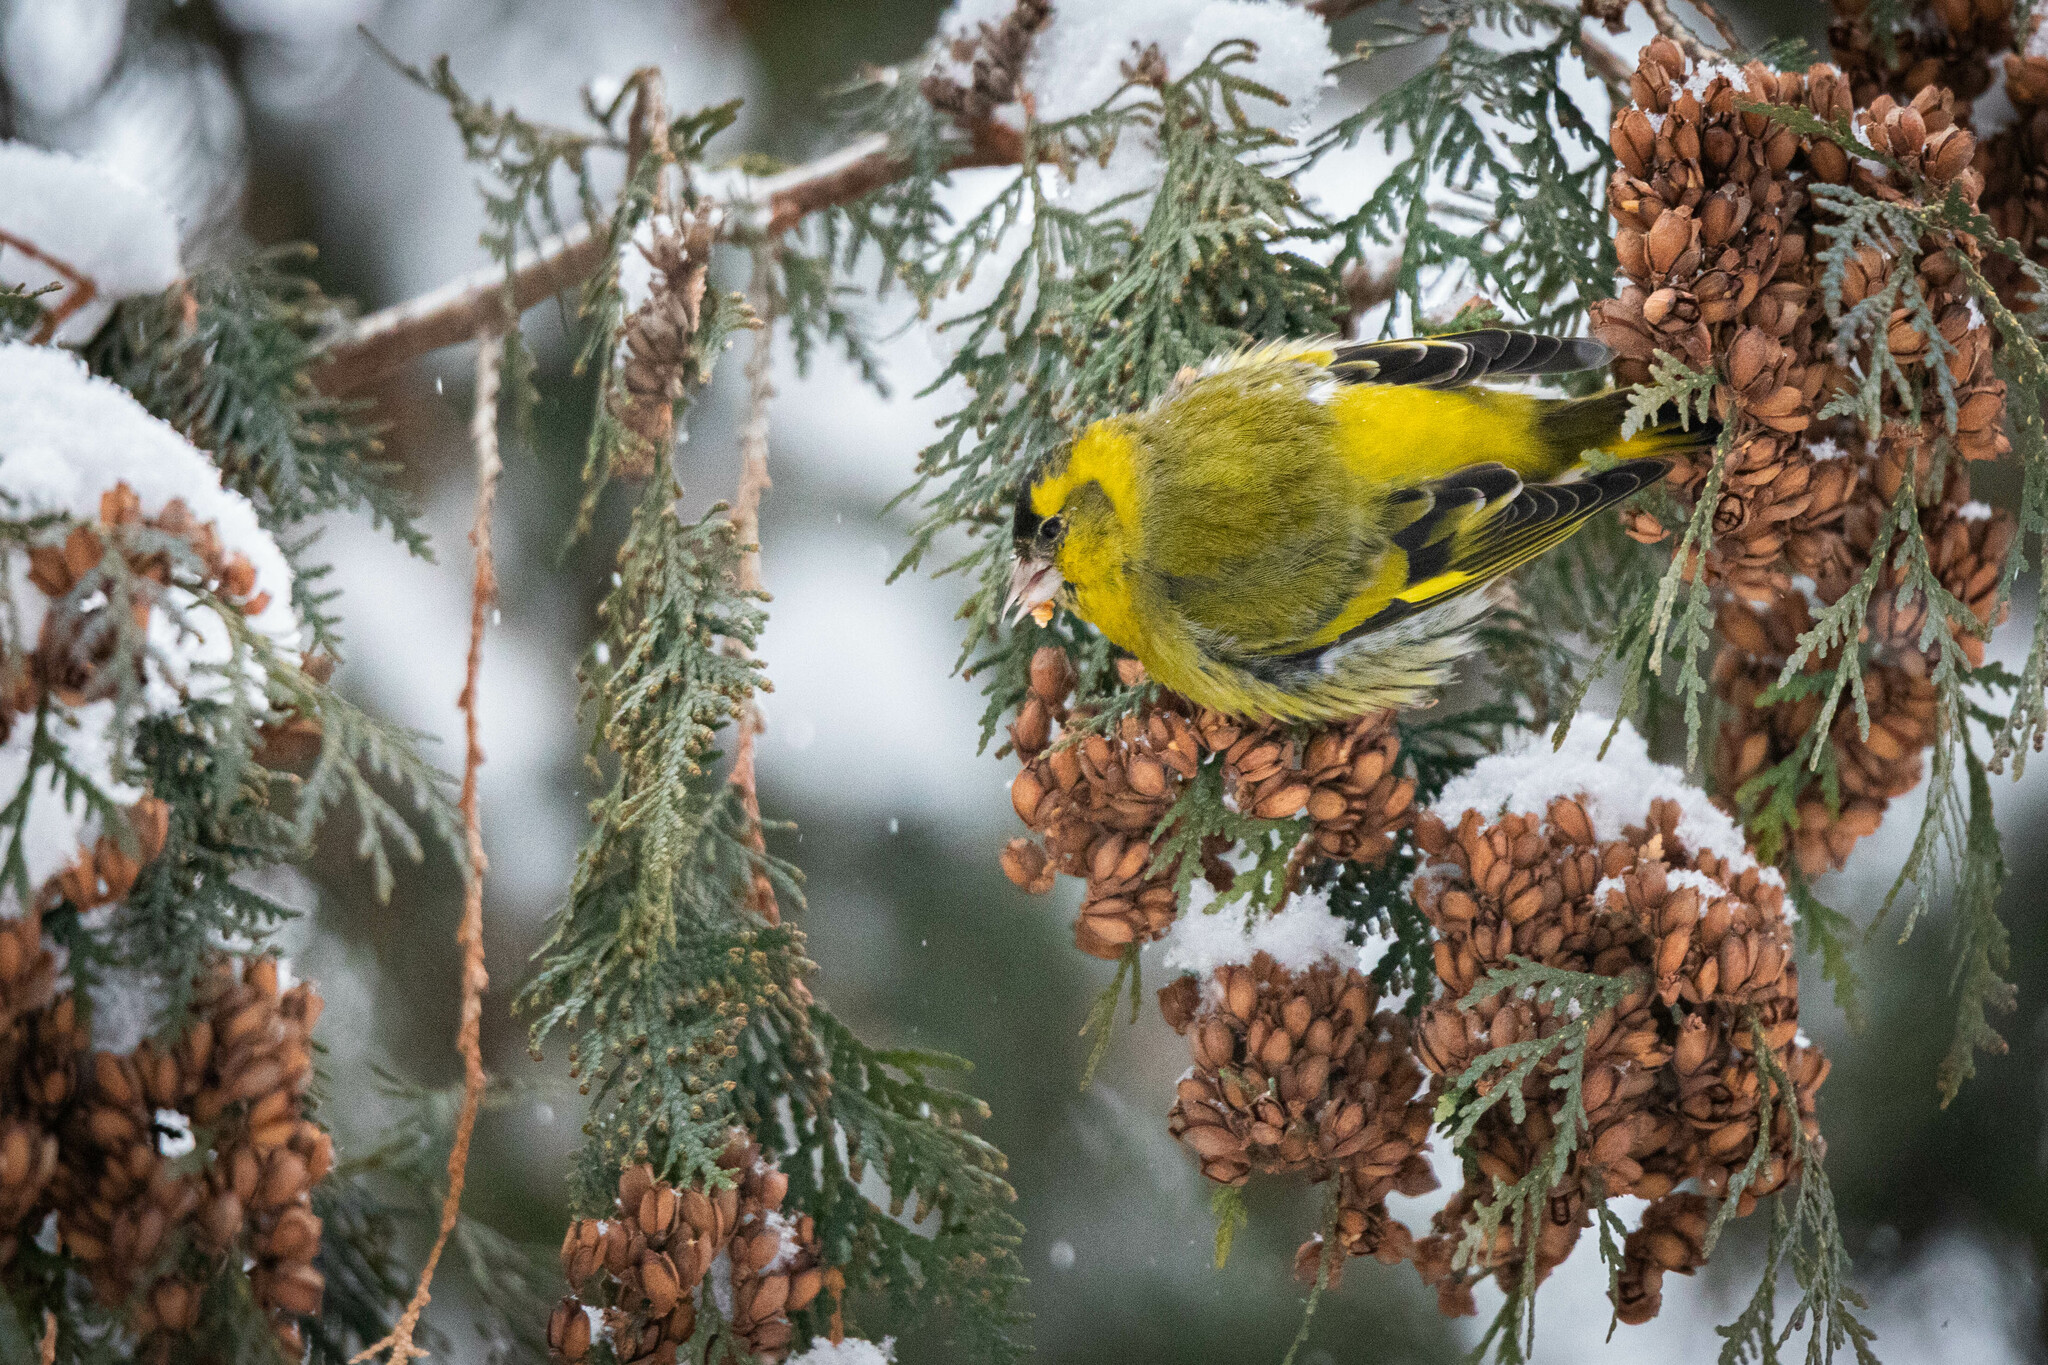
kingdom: Animalia
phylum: Chordata
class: Aves
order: Passeriformes
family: Fringillidae
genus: Spinus
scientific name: Spinus spinus
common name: Eurasian siskin
